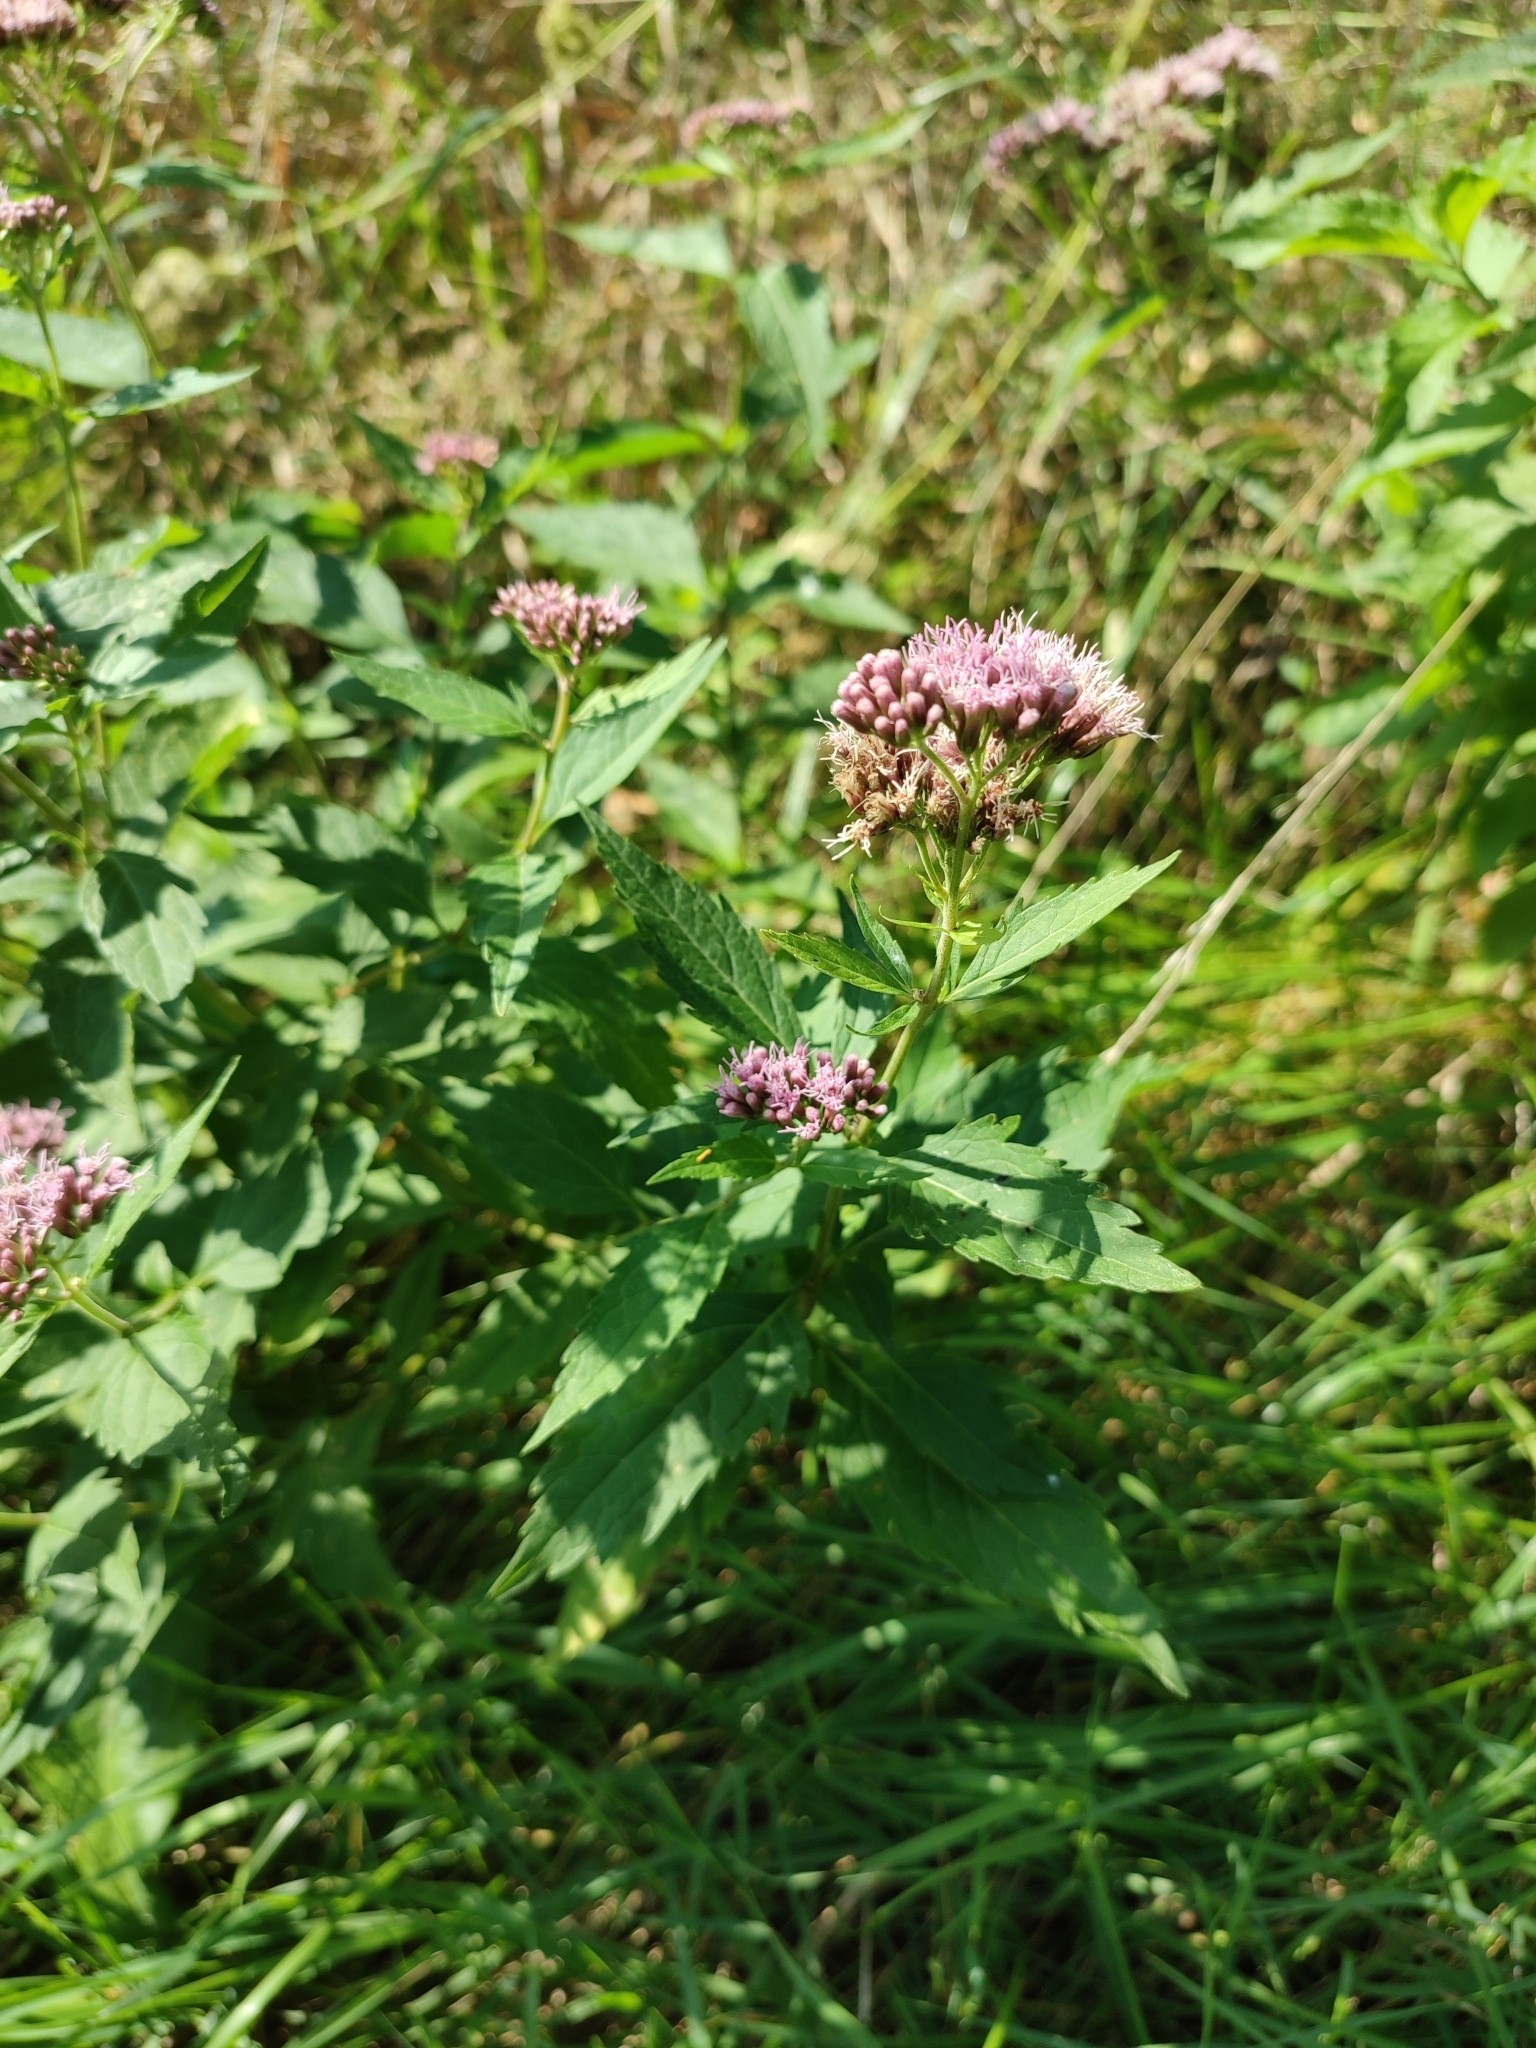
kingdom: Plantae
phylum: Tracheophyta
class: Magnoliopsida
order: Asterales
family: Asteraceae
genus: Eupatorium
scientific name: Eupatorium cannabinum
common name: Hemp-agrimony
